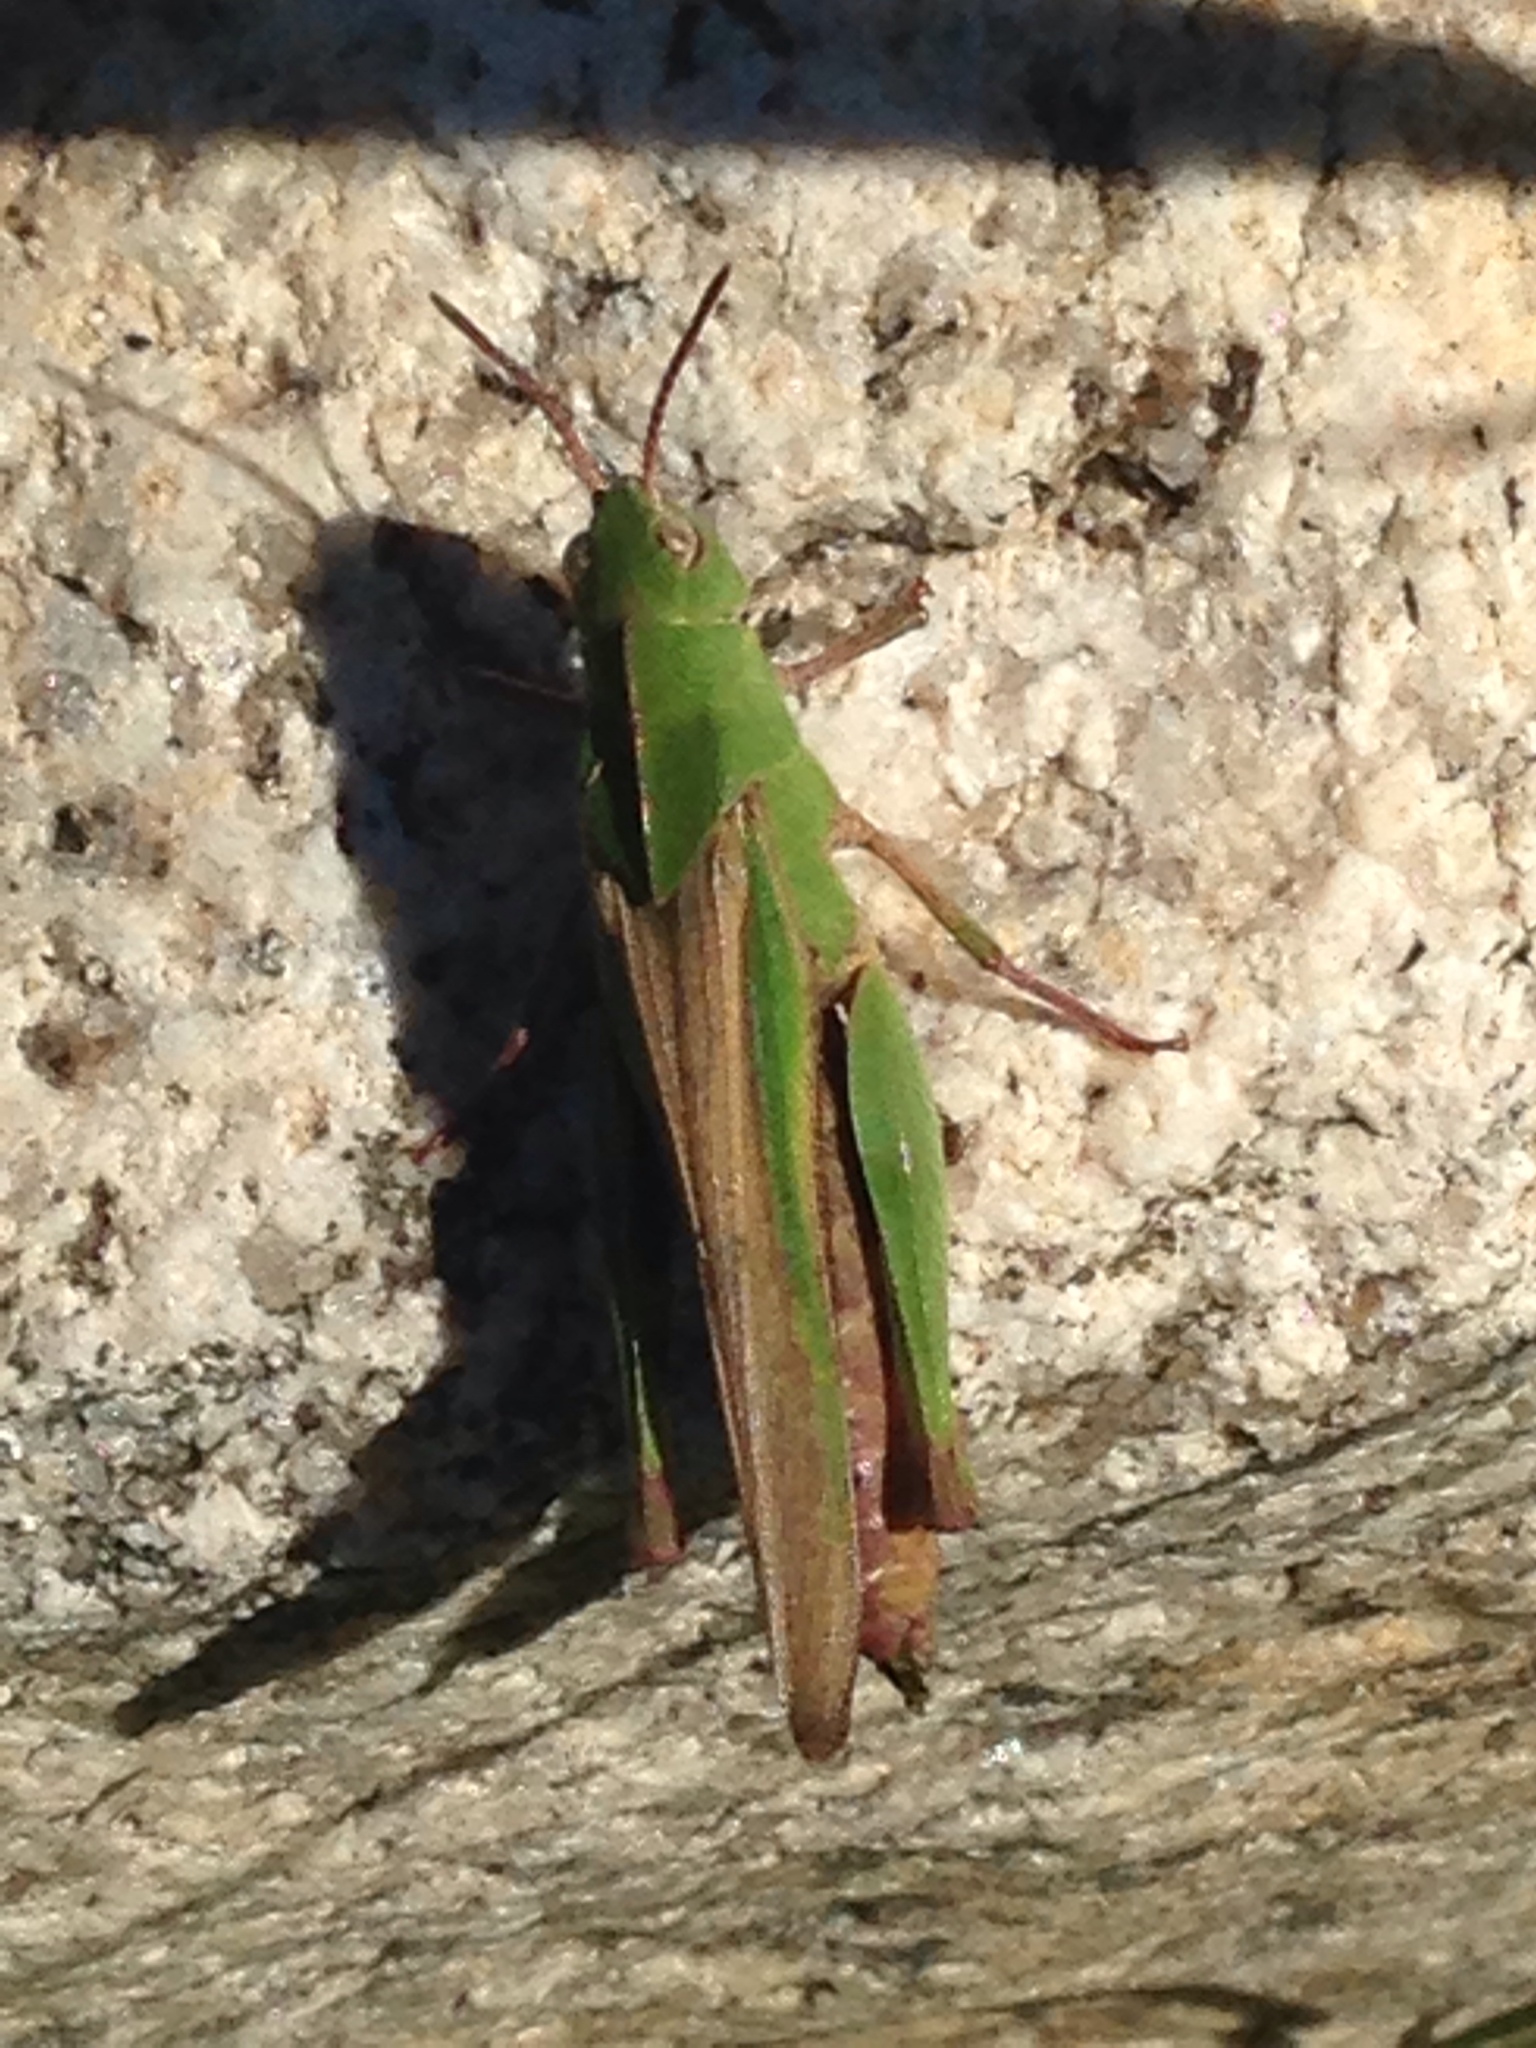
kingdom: Animalia
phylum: Arthropoda
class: Insecta
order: Orthoptera
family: Acrididae
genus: Chortophaga
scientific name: Chortophaga viridifasciata
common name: Green-striped grasshopper
